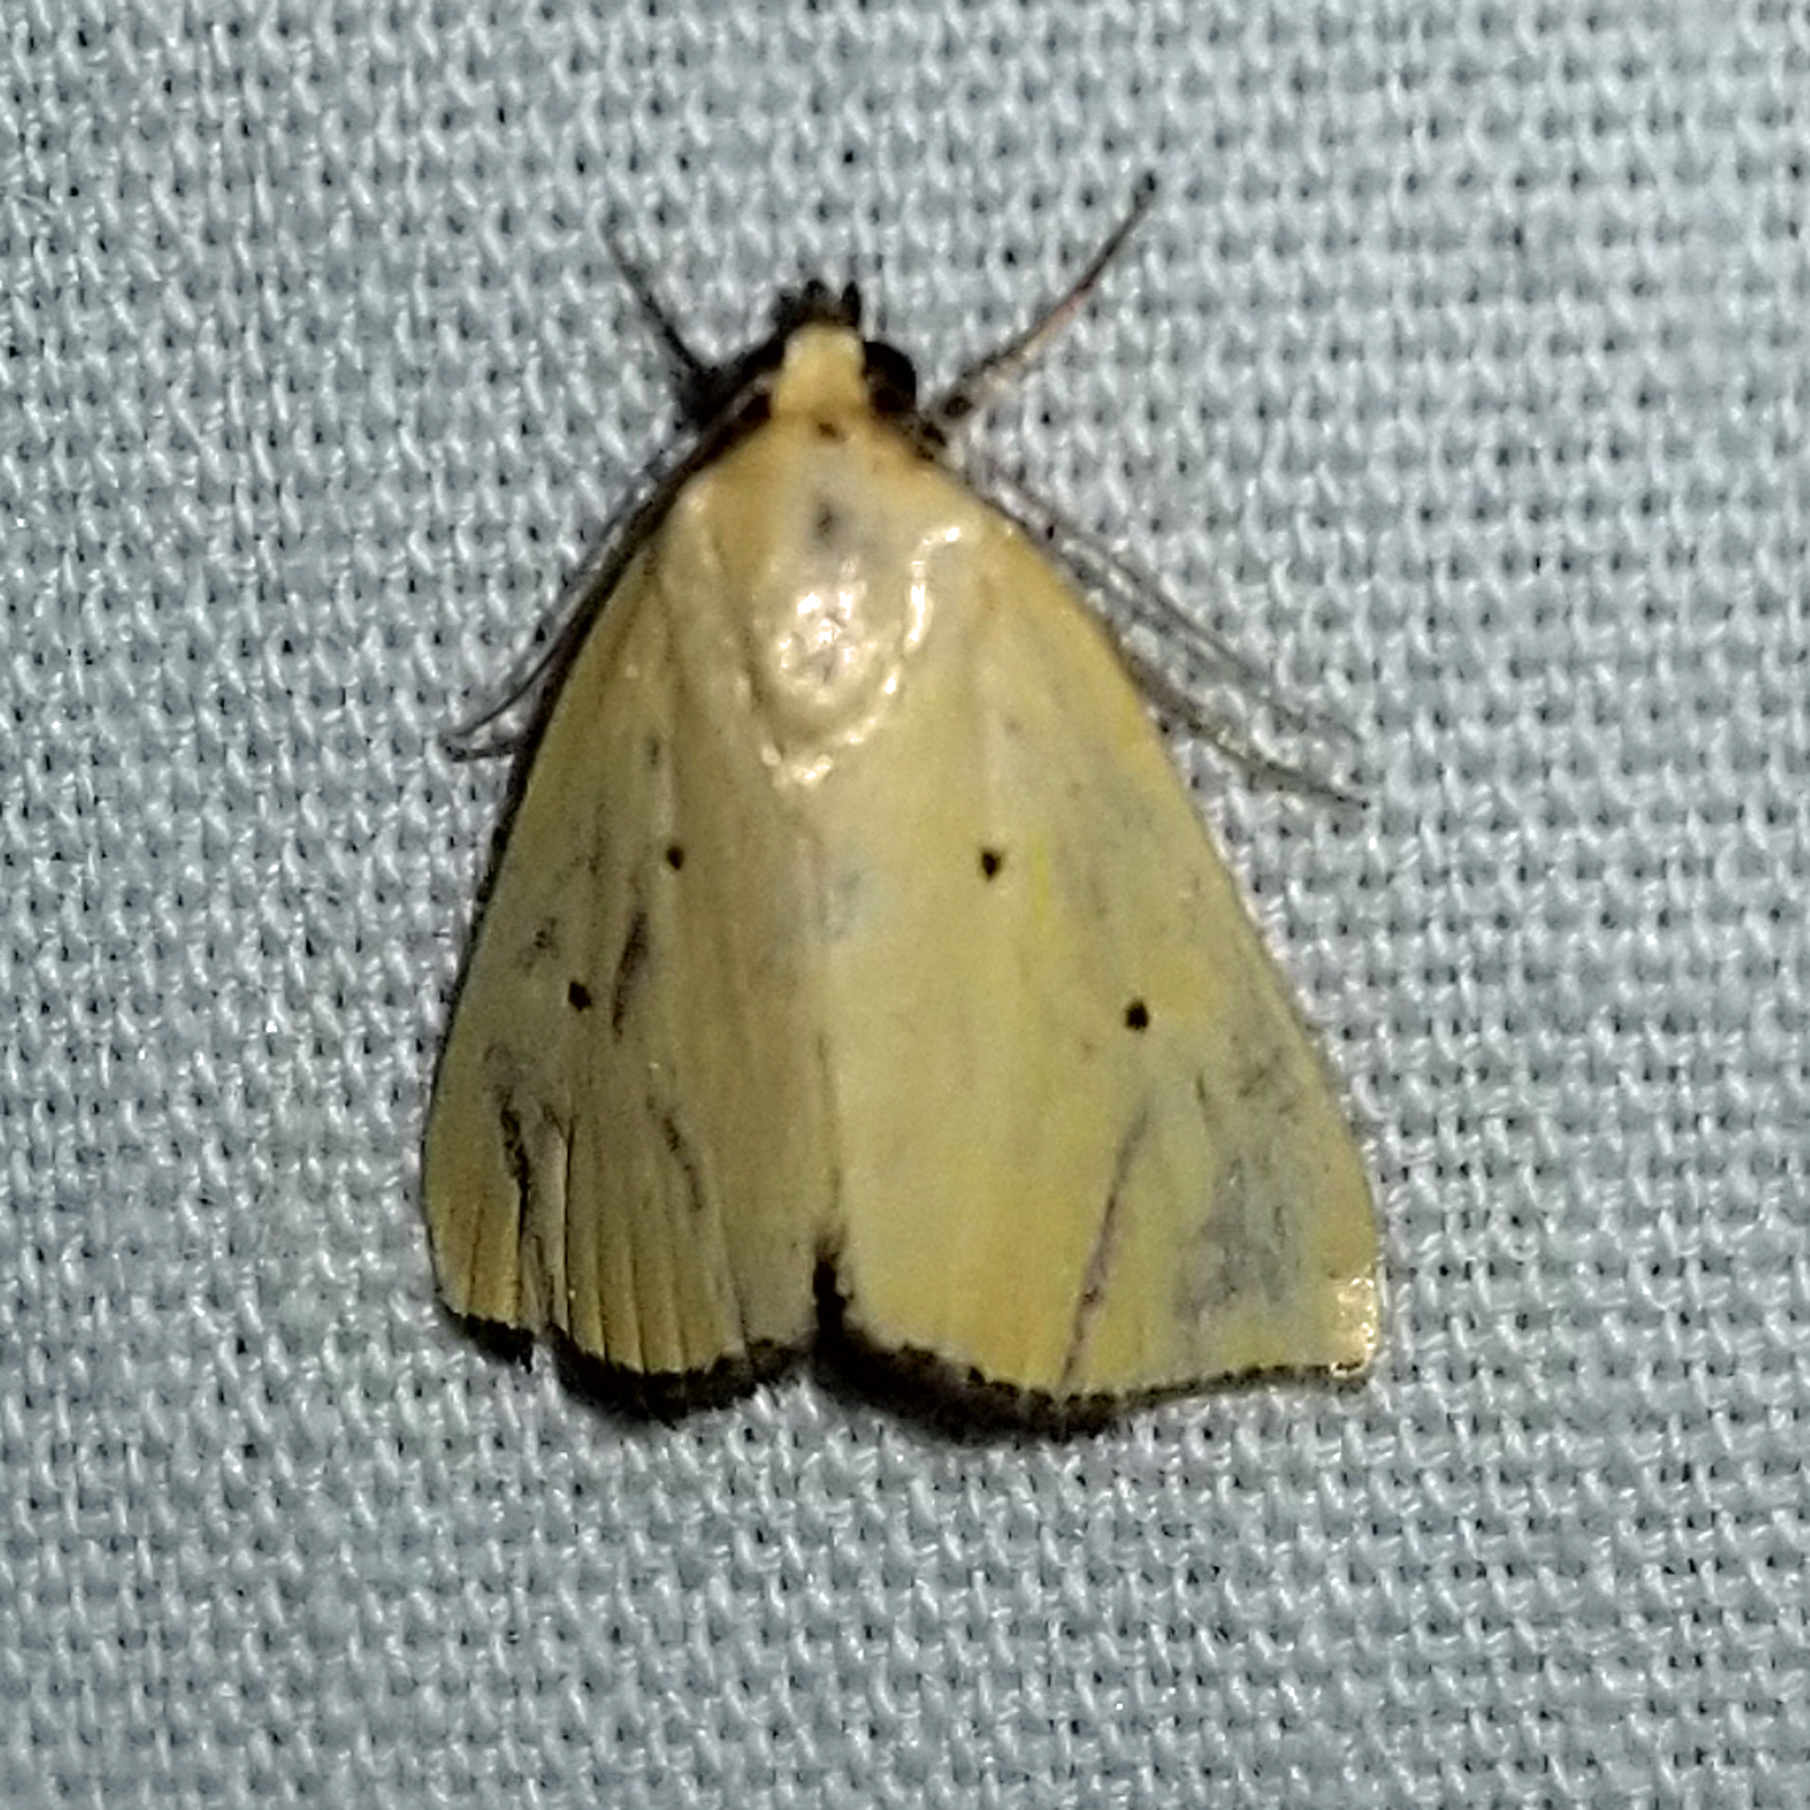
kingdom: Animalia
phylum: Arthropoda
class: Insecta
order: Lepidoptera
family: Noctuidae
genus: Marimatha
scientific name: Marimatha nigrofimbria
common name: Black-bordered lemon moth
